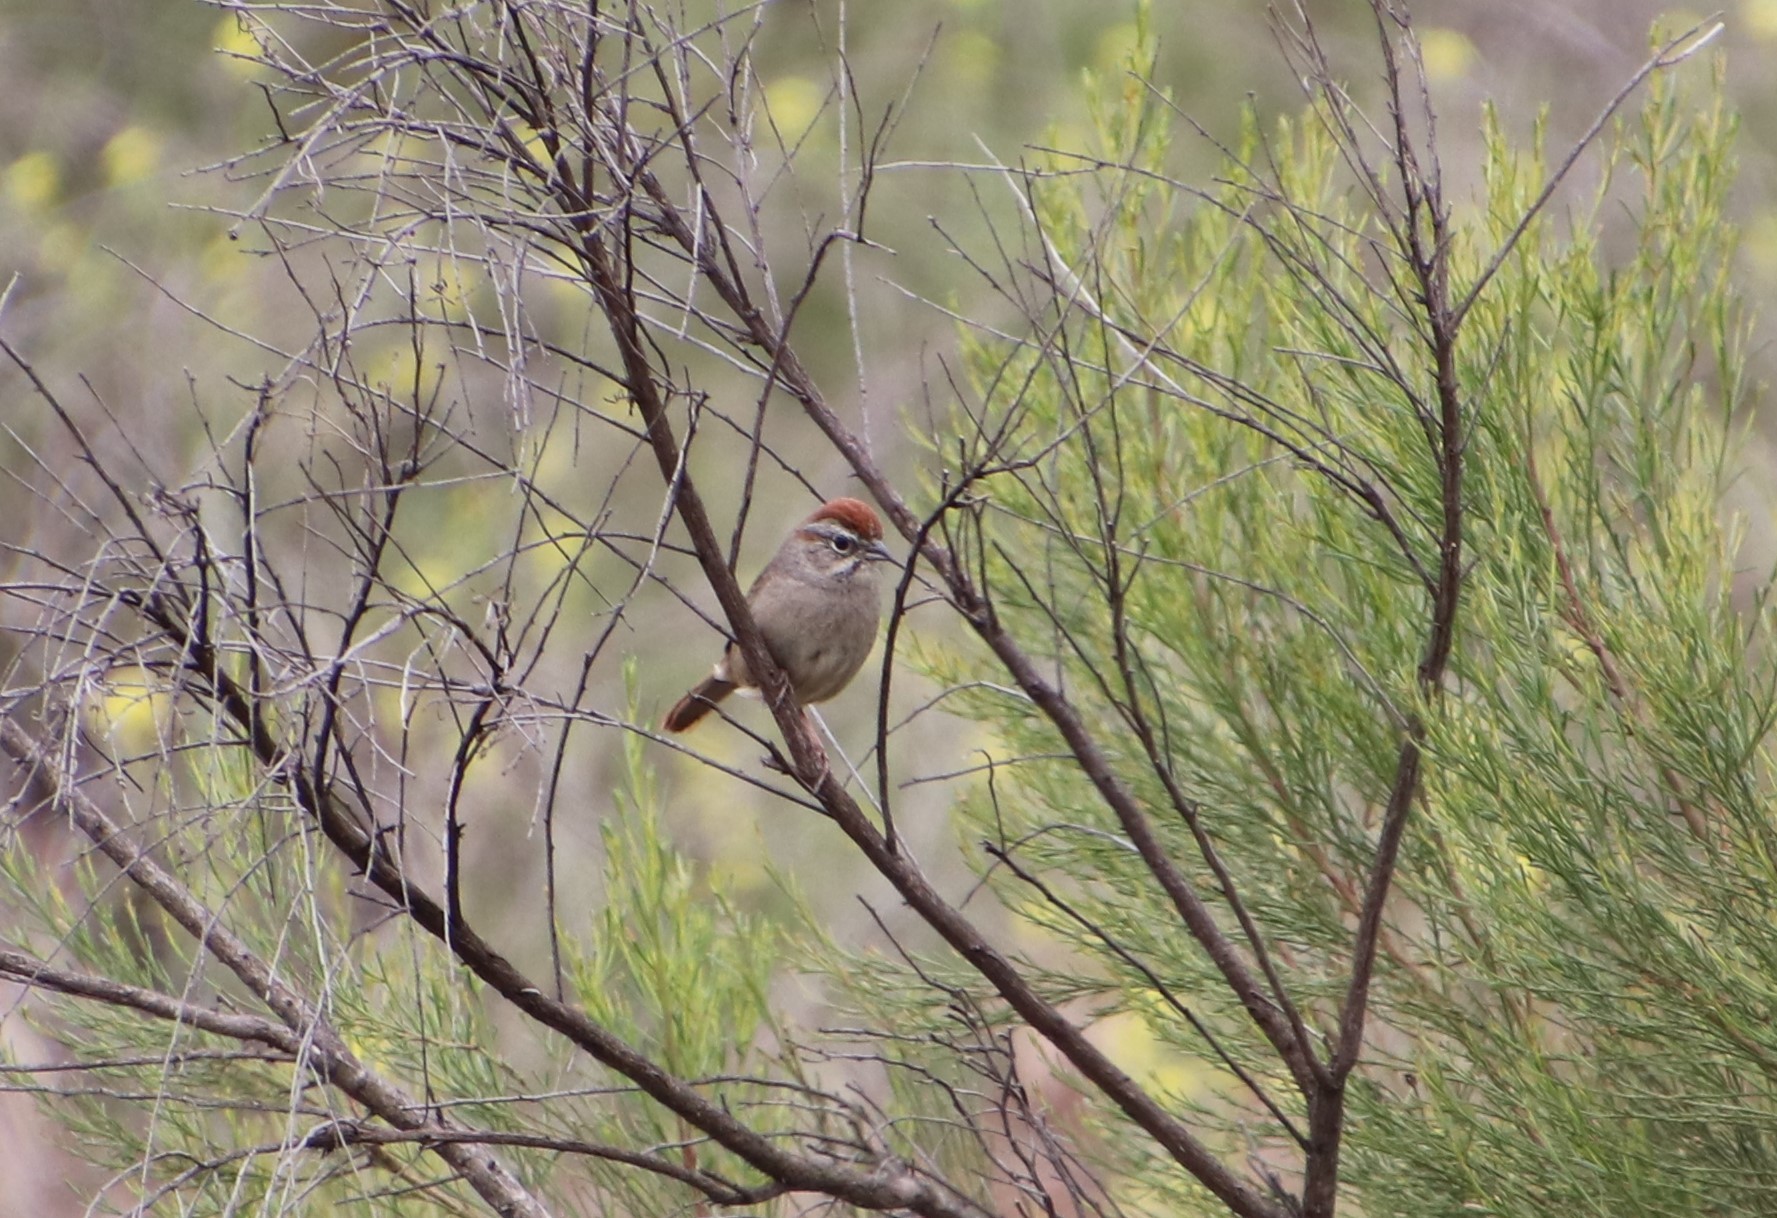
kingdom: Animalia
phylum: Chordata
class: Aves
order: Passeriformes
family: Passerellidae
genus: Aimophila
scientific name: Aimophila ruficeps
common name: Rufous-crowned sparrow
